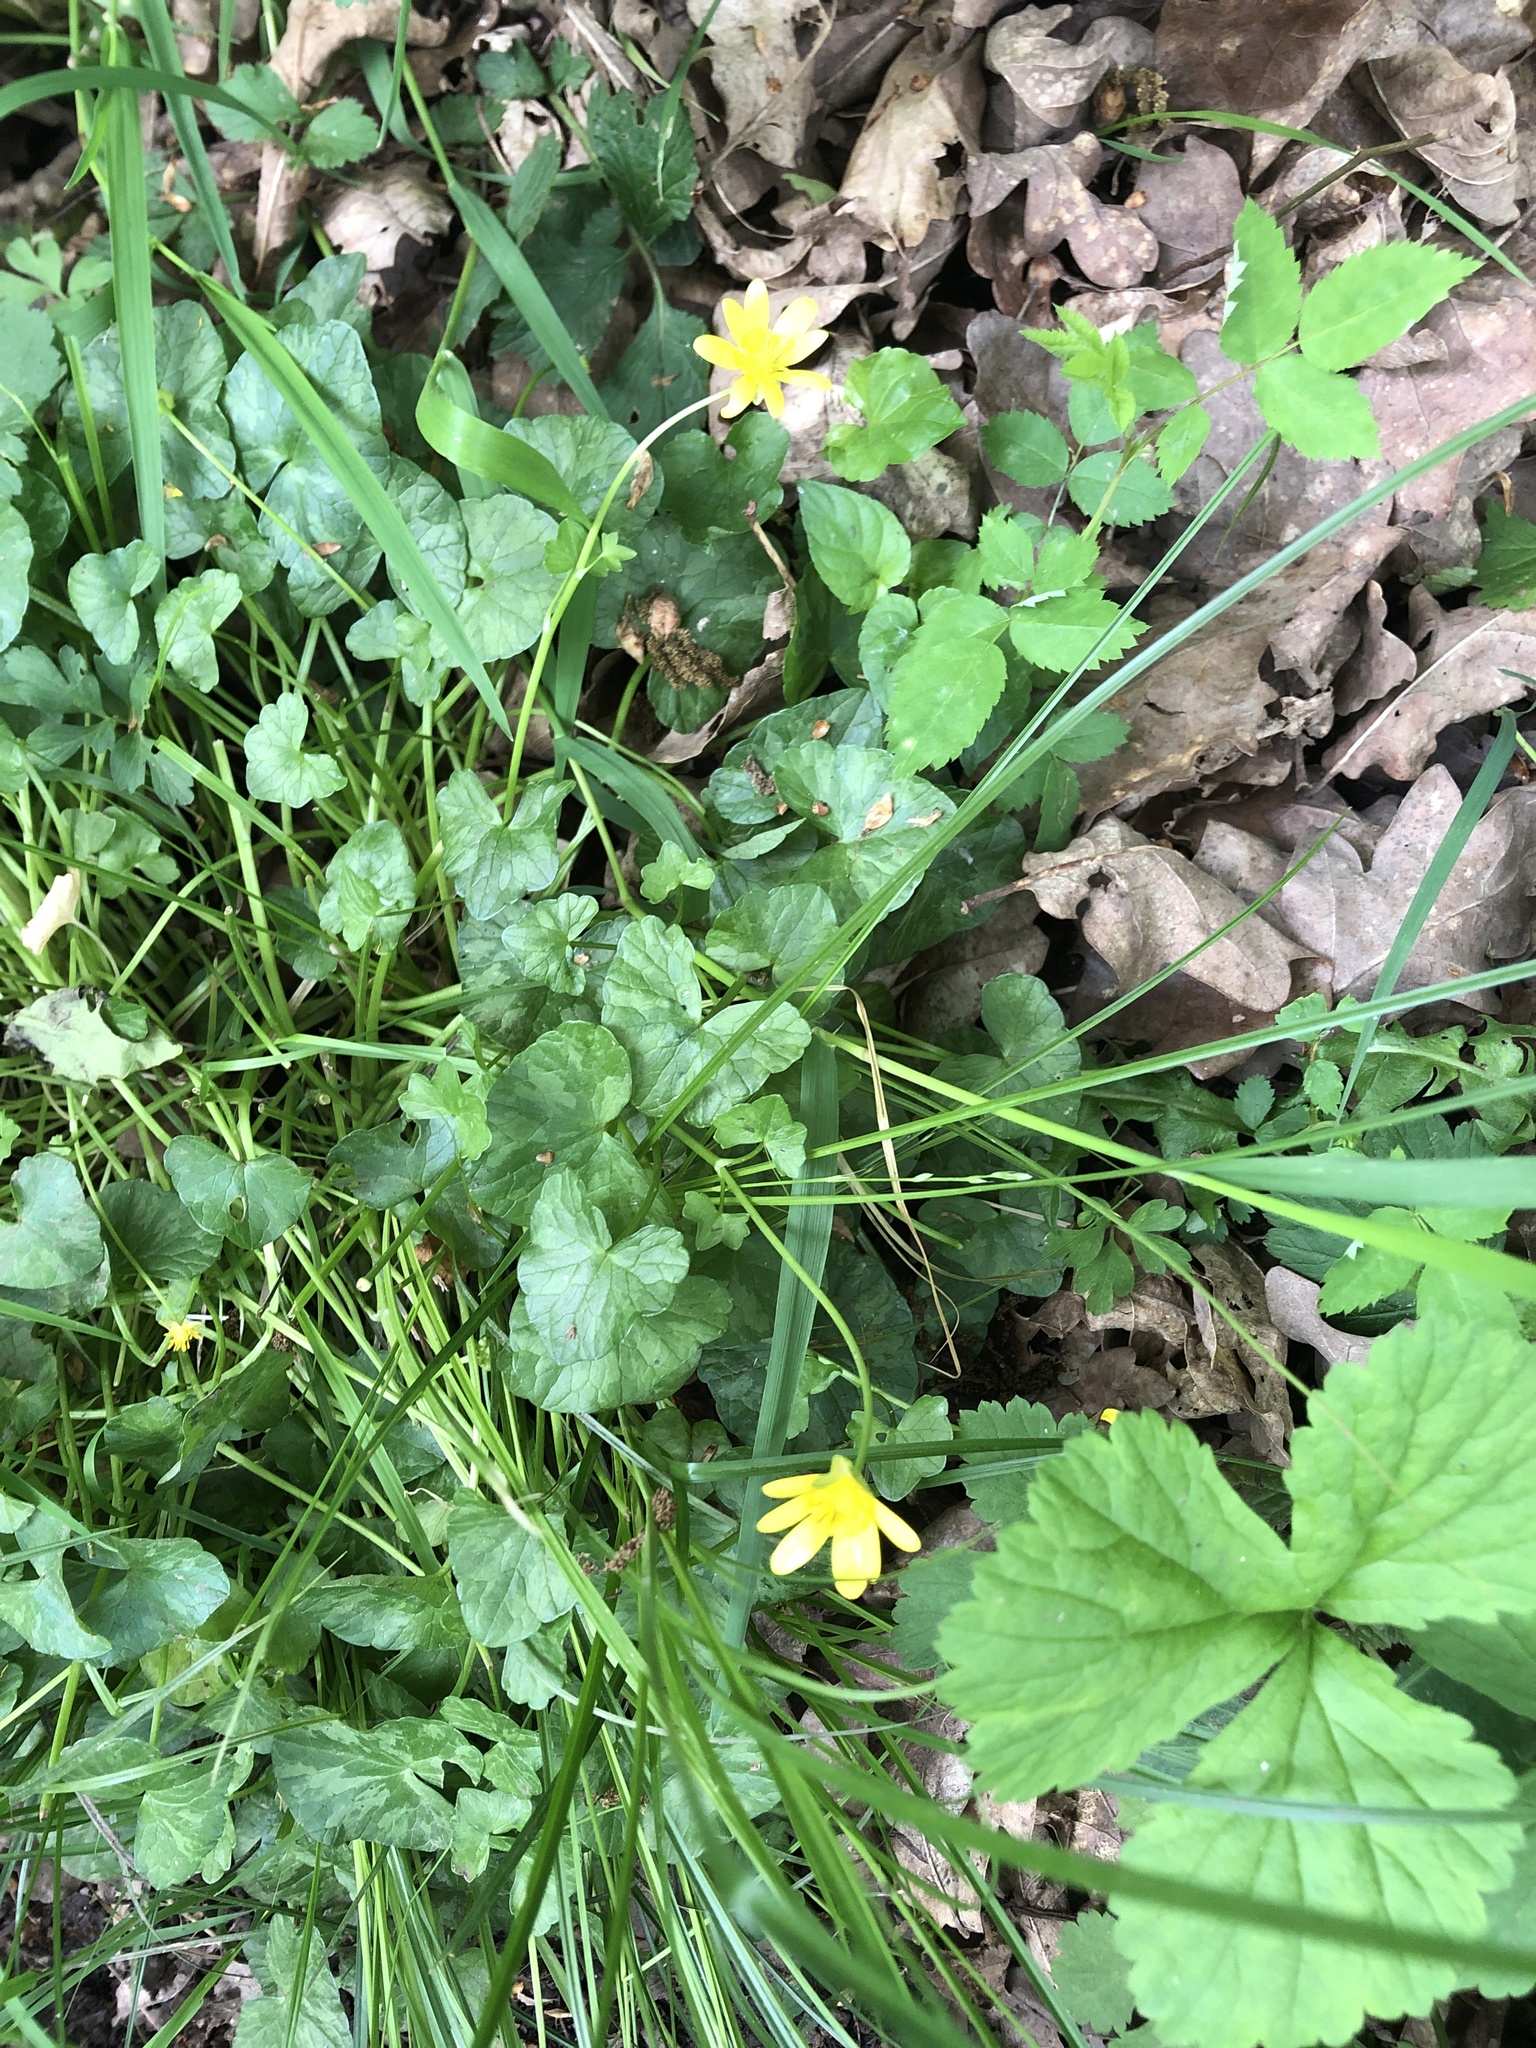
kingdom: Plantae
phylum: Tracheophyta
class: Magnoliopsida
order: Ranunculales
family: Ranunculaceae
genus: Ficaria
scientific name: Ficaria verna
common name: Lesser celandine
